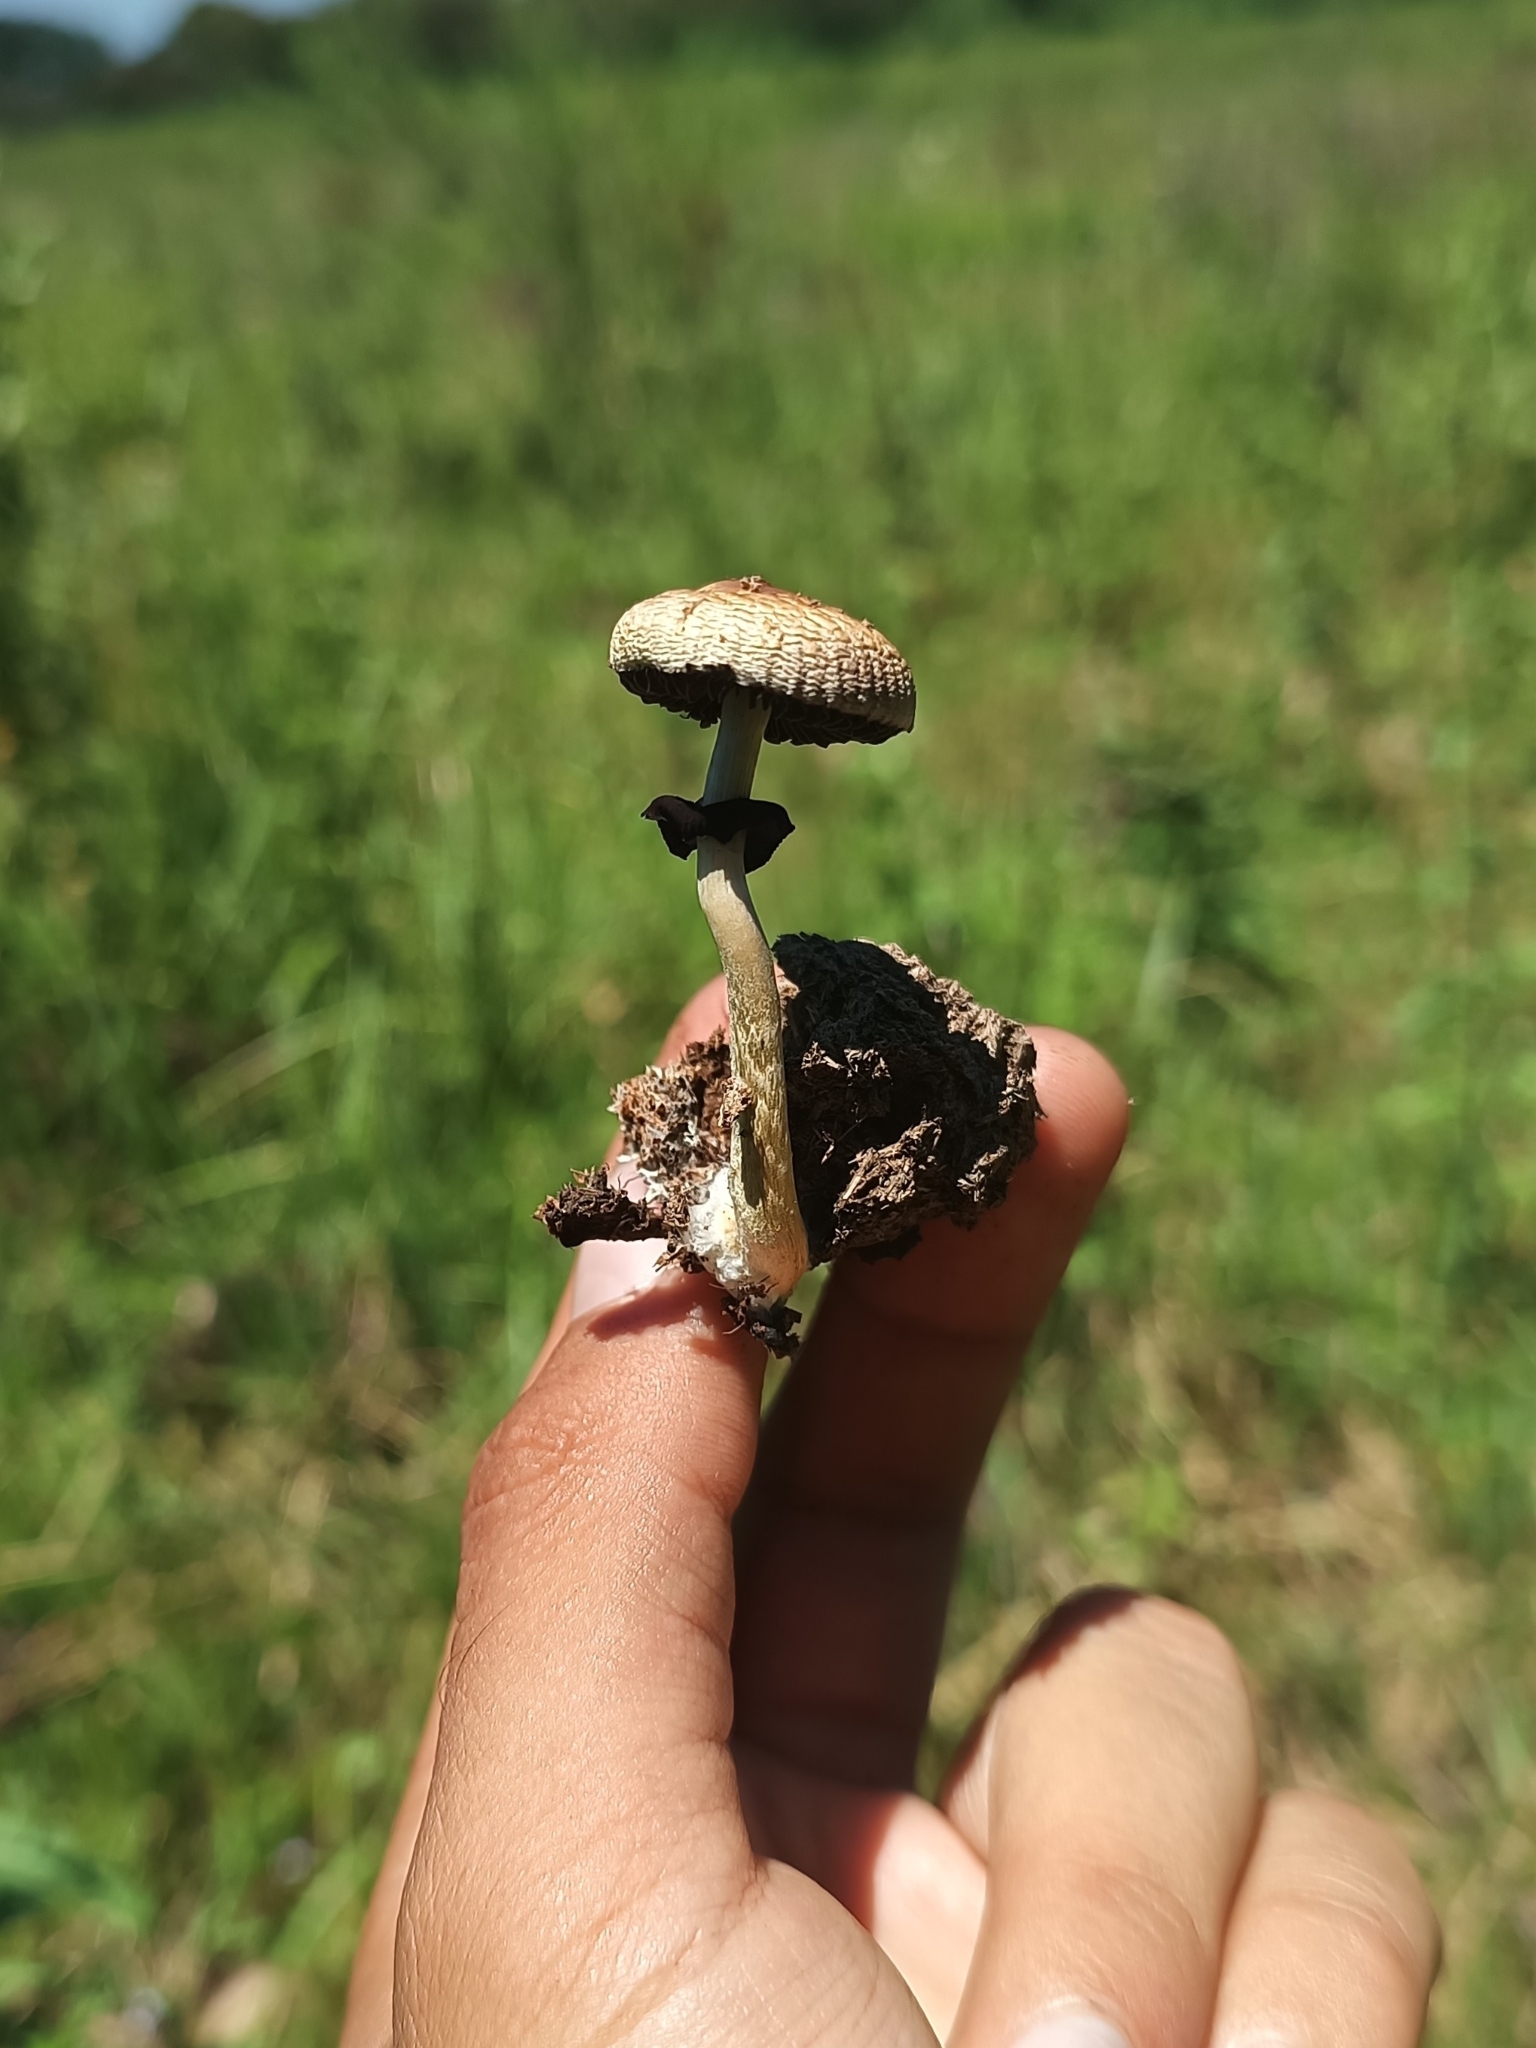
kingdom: Fungi
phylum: Basidiomycota
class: Agaricomycetes
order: Agaricales
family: Hymenogastraceae
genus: Psilocybe
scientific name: Psilocybe cubensis
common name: Golden brownie
